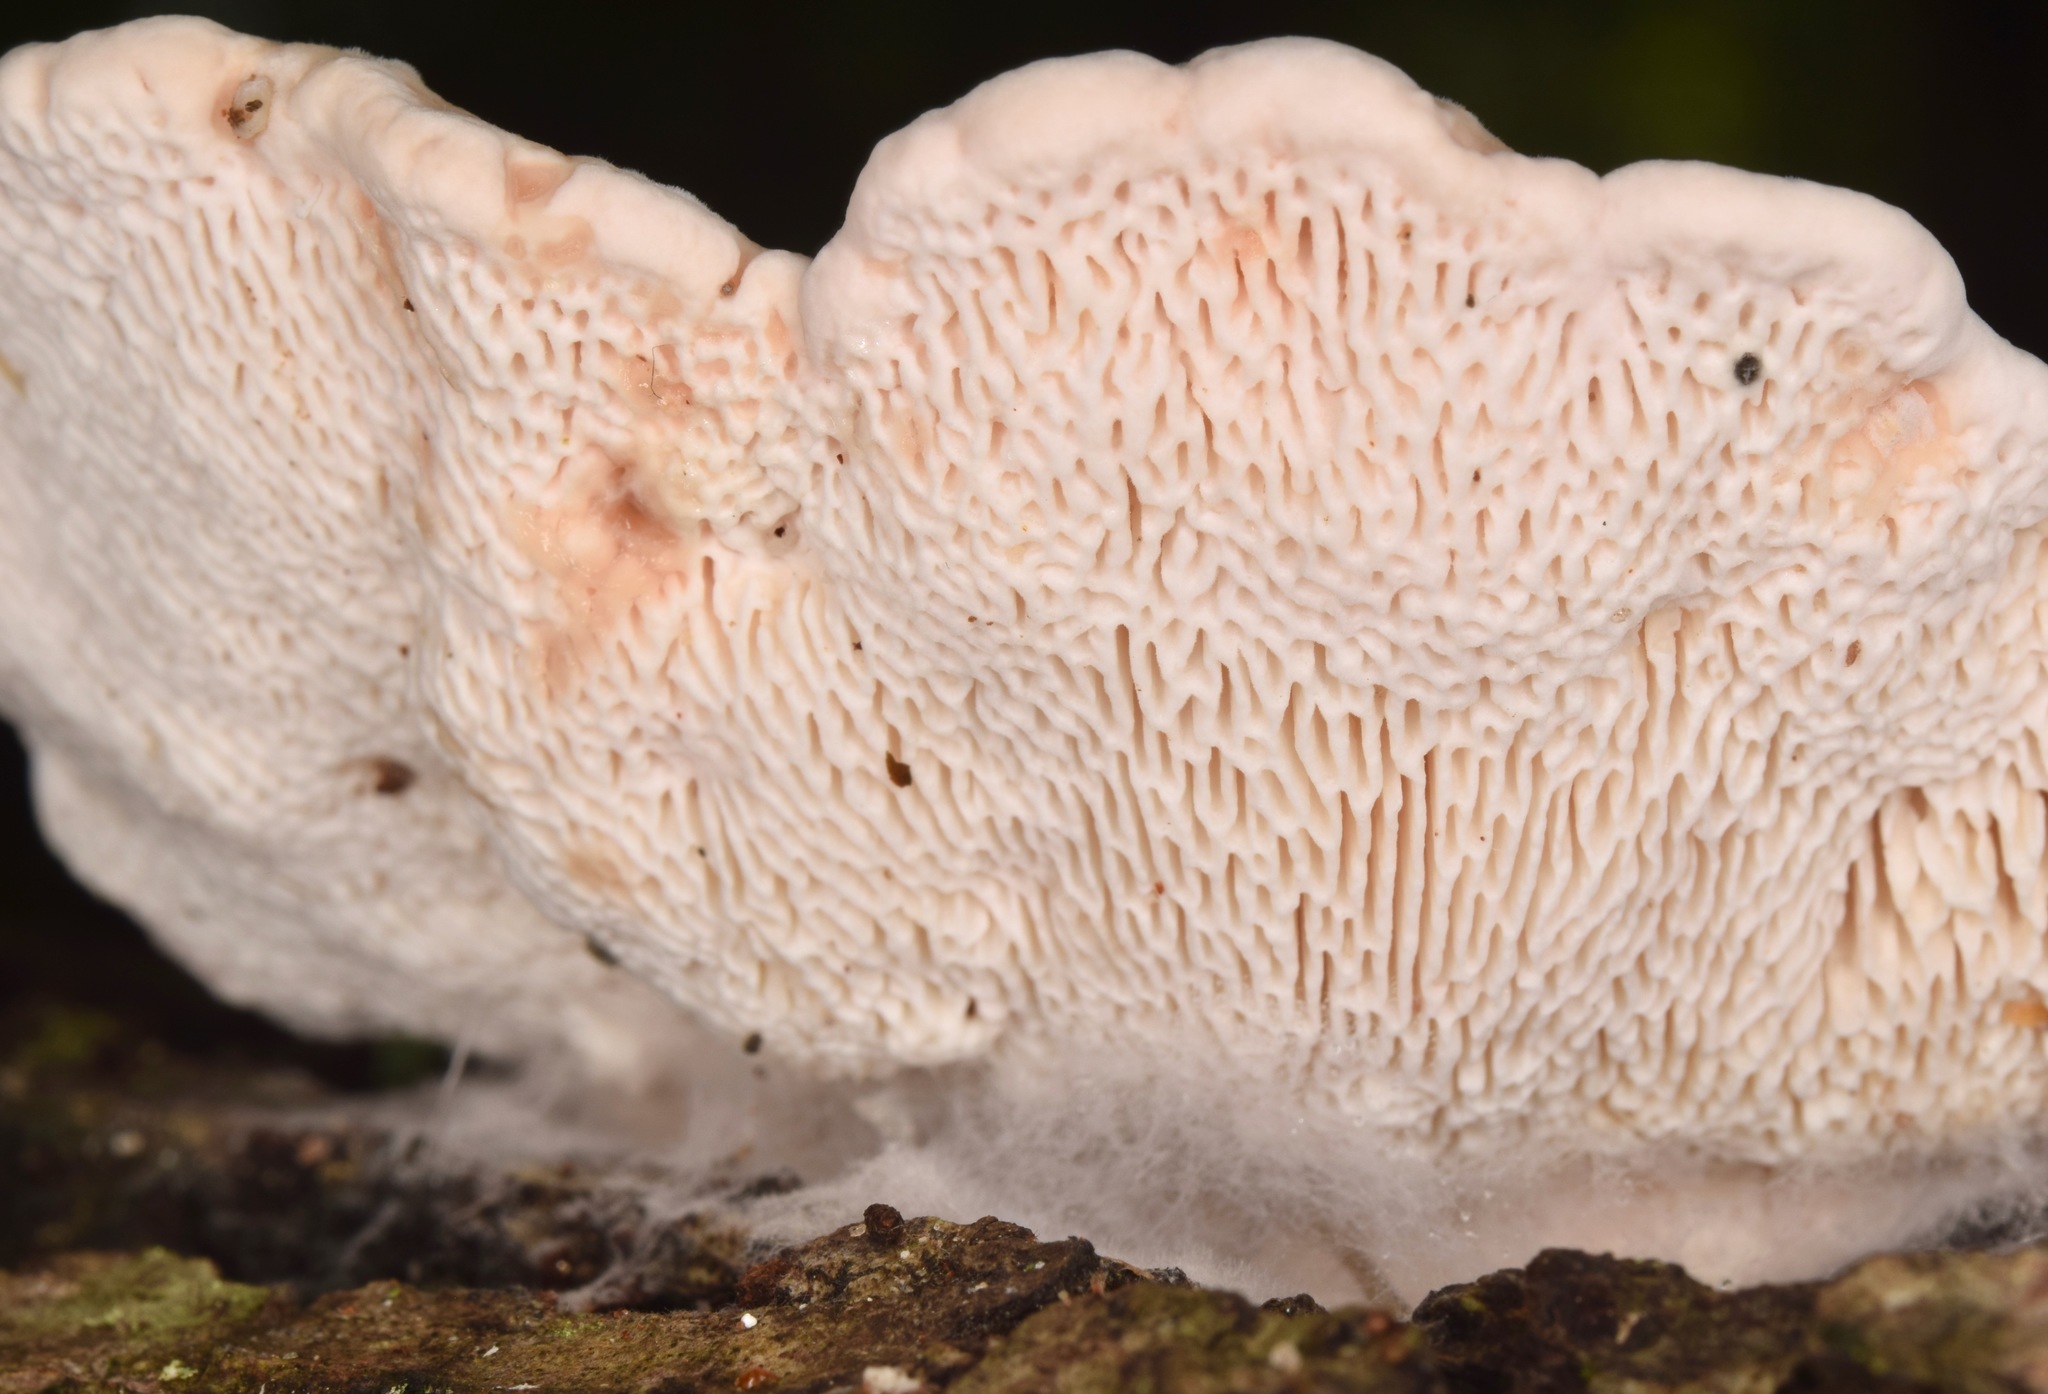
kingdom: Fungi
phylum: Basidiomycota
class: Agaricomycetes
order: Polyporales
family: Fomitopsidaceae
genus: Fomitopsis
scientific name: Fomitopsis
